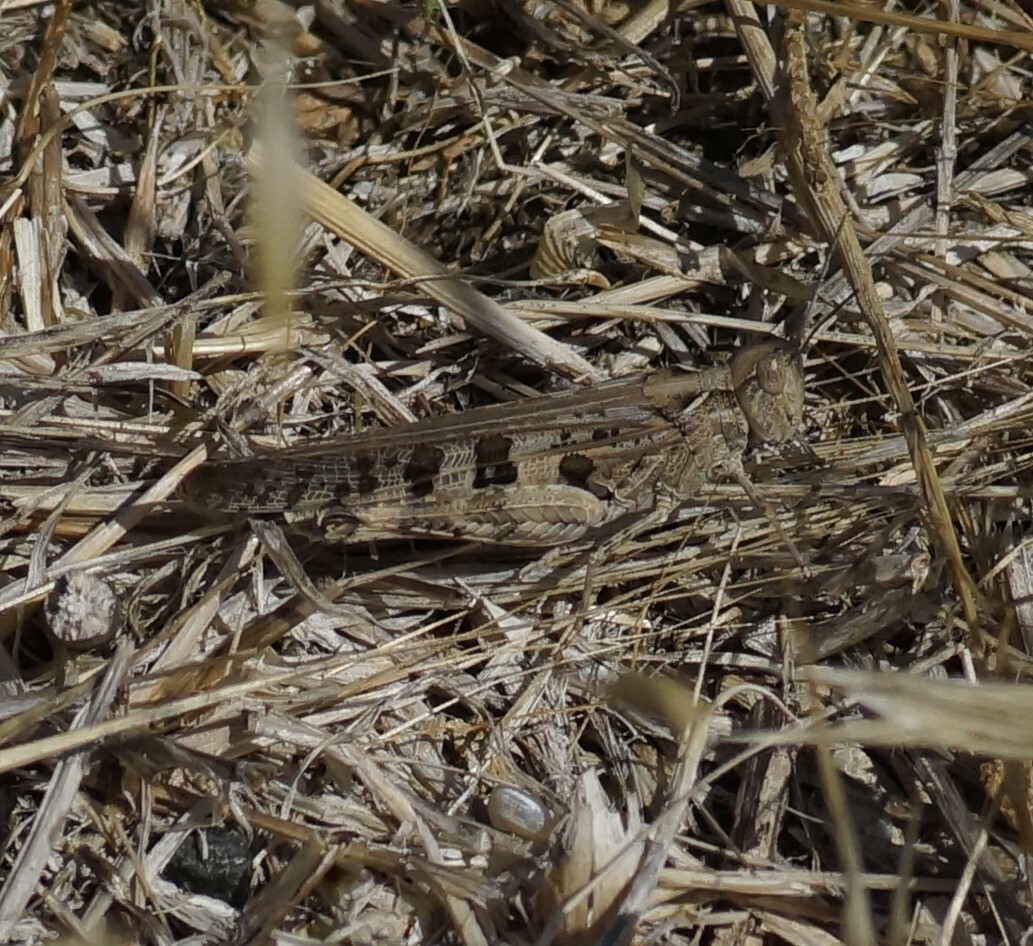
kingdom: Animalia
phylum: Arthropoda
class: Insecta
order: Orthoptera
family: Acrididae
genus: Chortoicetes
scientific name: Chortoicetes terminifera
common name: Australian plague locust
